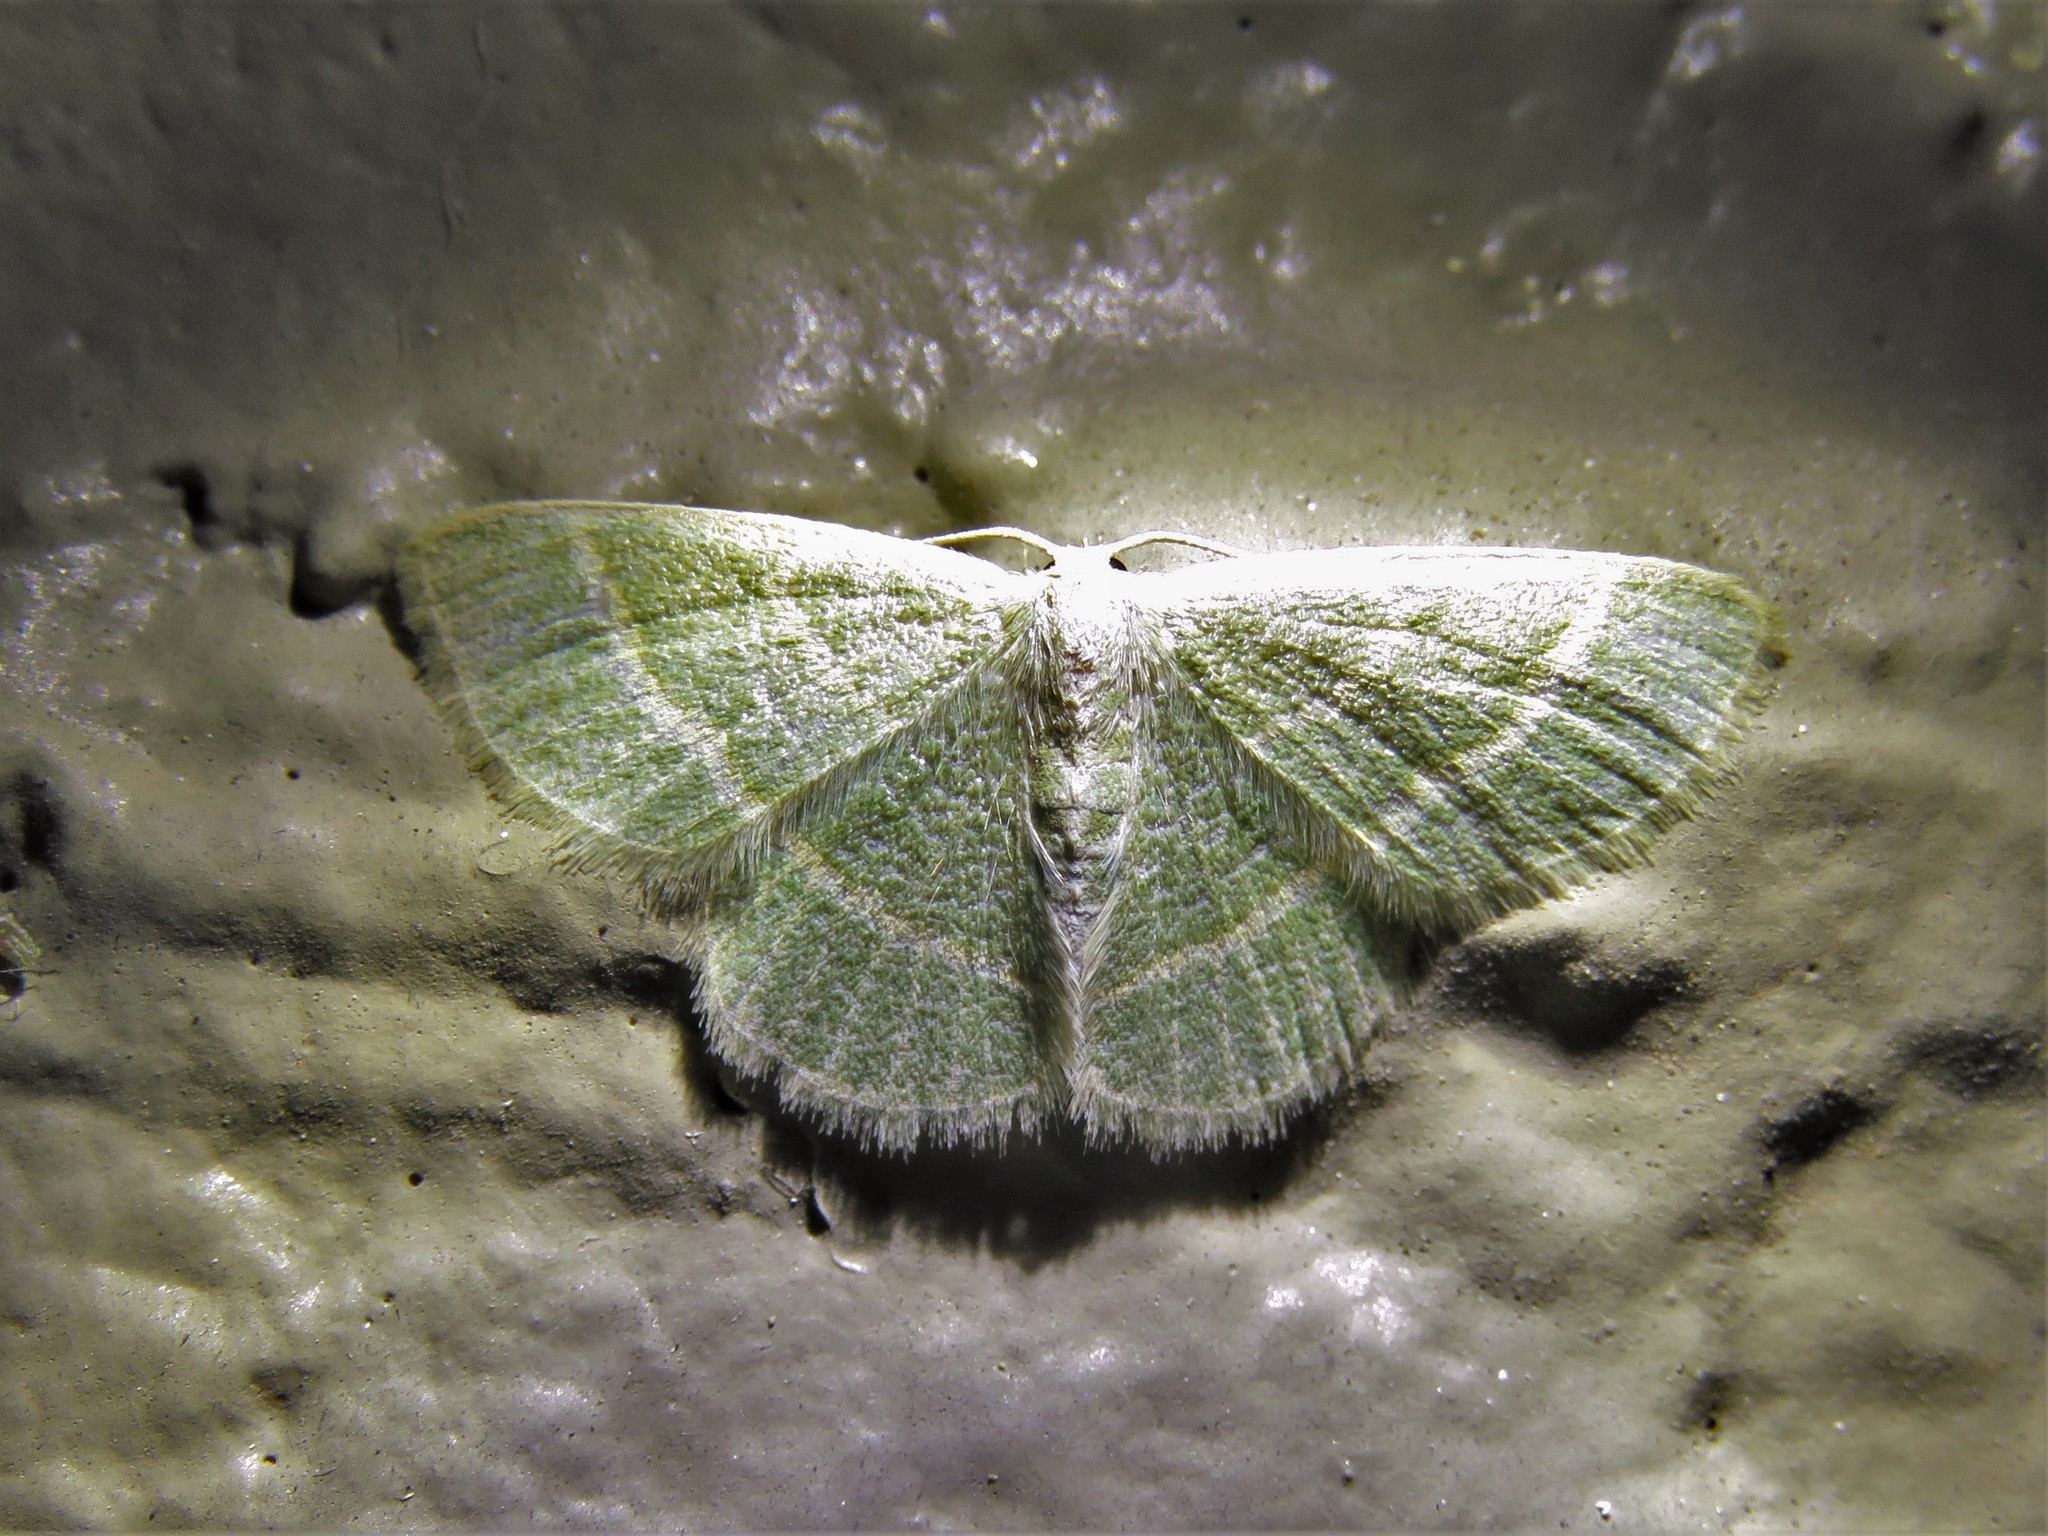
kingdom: Animalia
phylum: Arthropoda
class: Insecta
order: Lepidoptera
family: Geometridae
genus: Chlorochlamys
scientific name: Chlorochlamys chloroleucaria
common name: Blackberry looper
